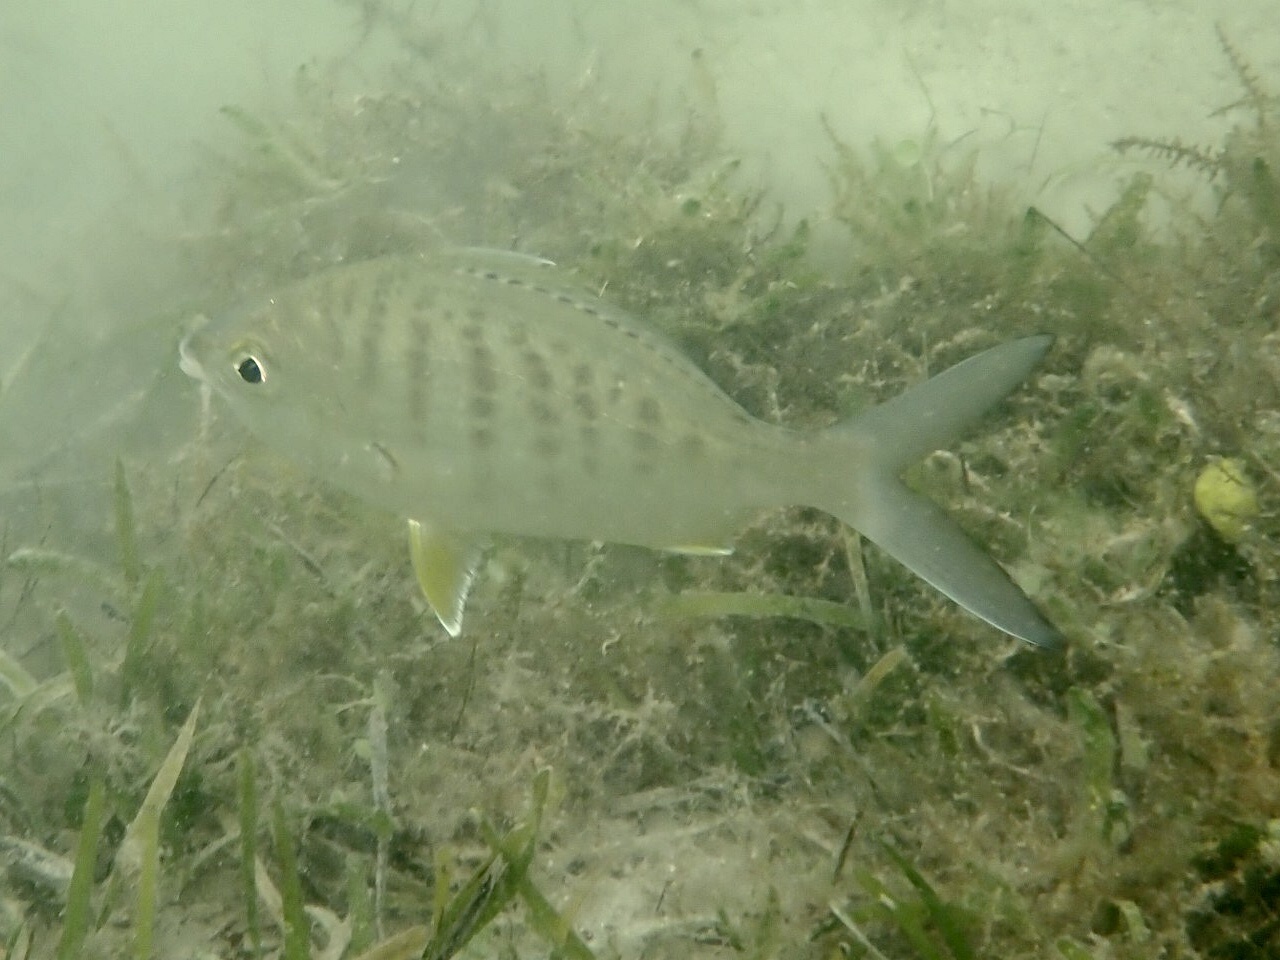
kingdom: Animalia
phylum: Chordata
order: Perciformes
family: Gerreidae
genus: Gerres
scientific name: Gerres cinereus
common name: Hedow
